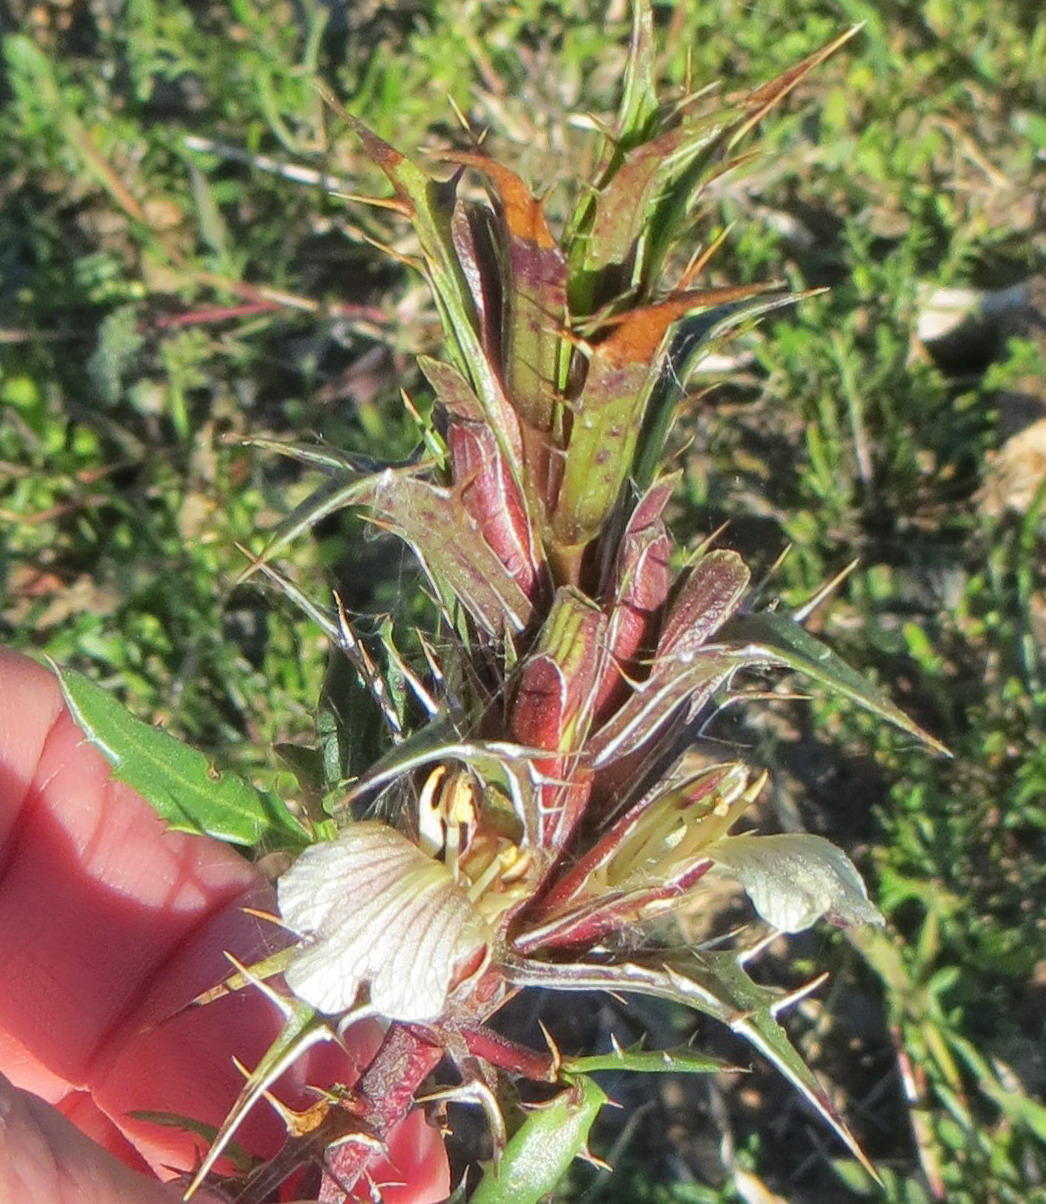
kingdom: Plantae
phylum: Tracheophyta
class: Magnoliopsida
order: Lamiales
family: Acanthaceae
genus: Blepharis
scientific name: Blepharis capensis
